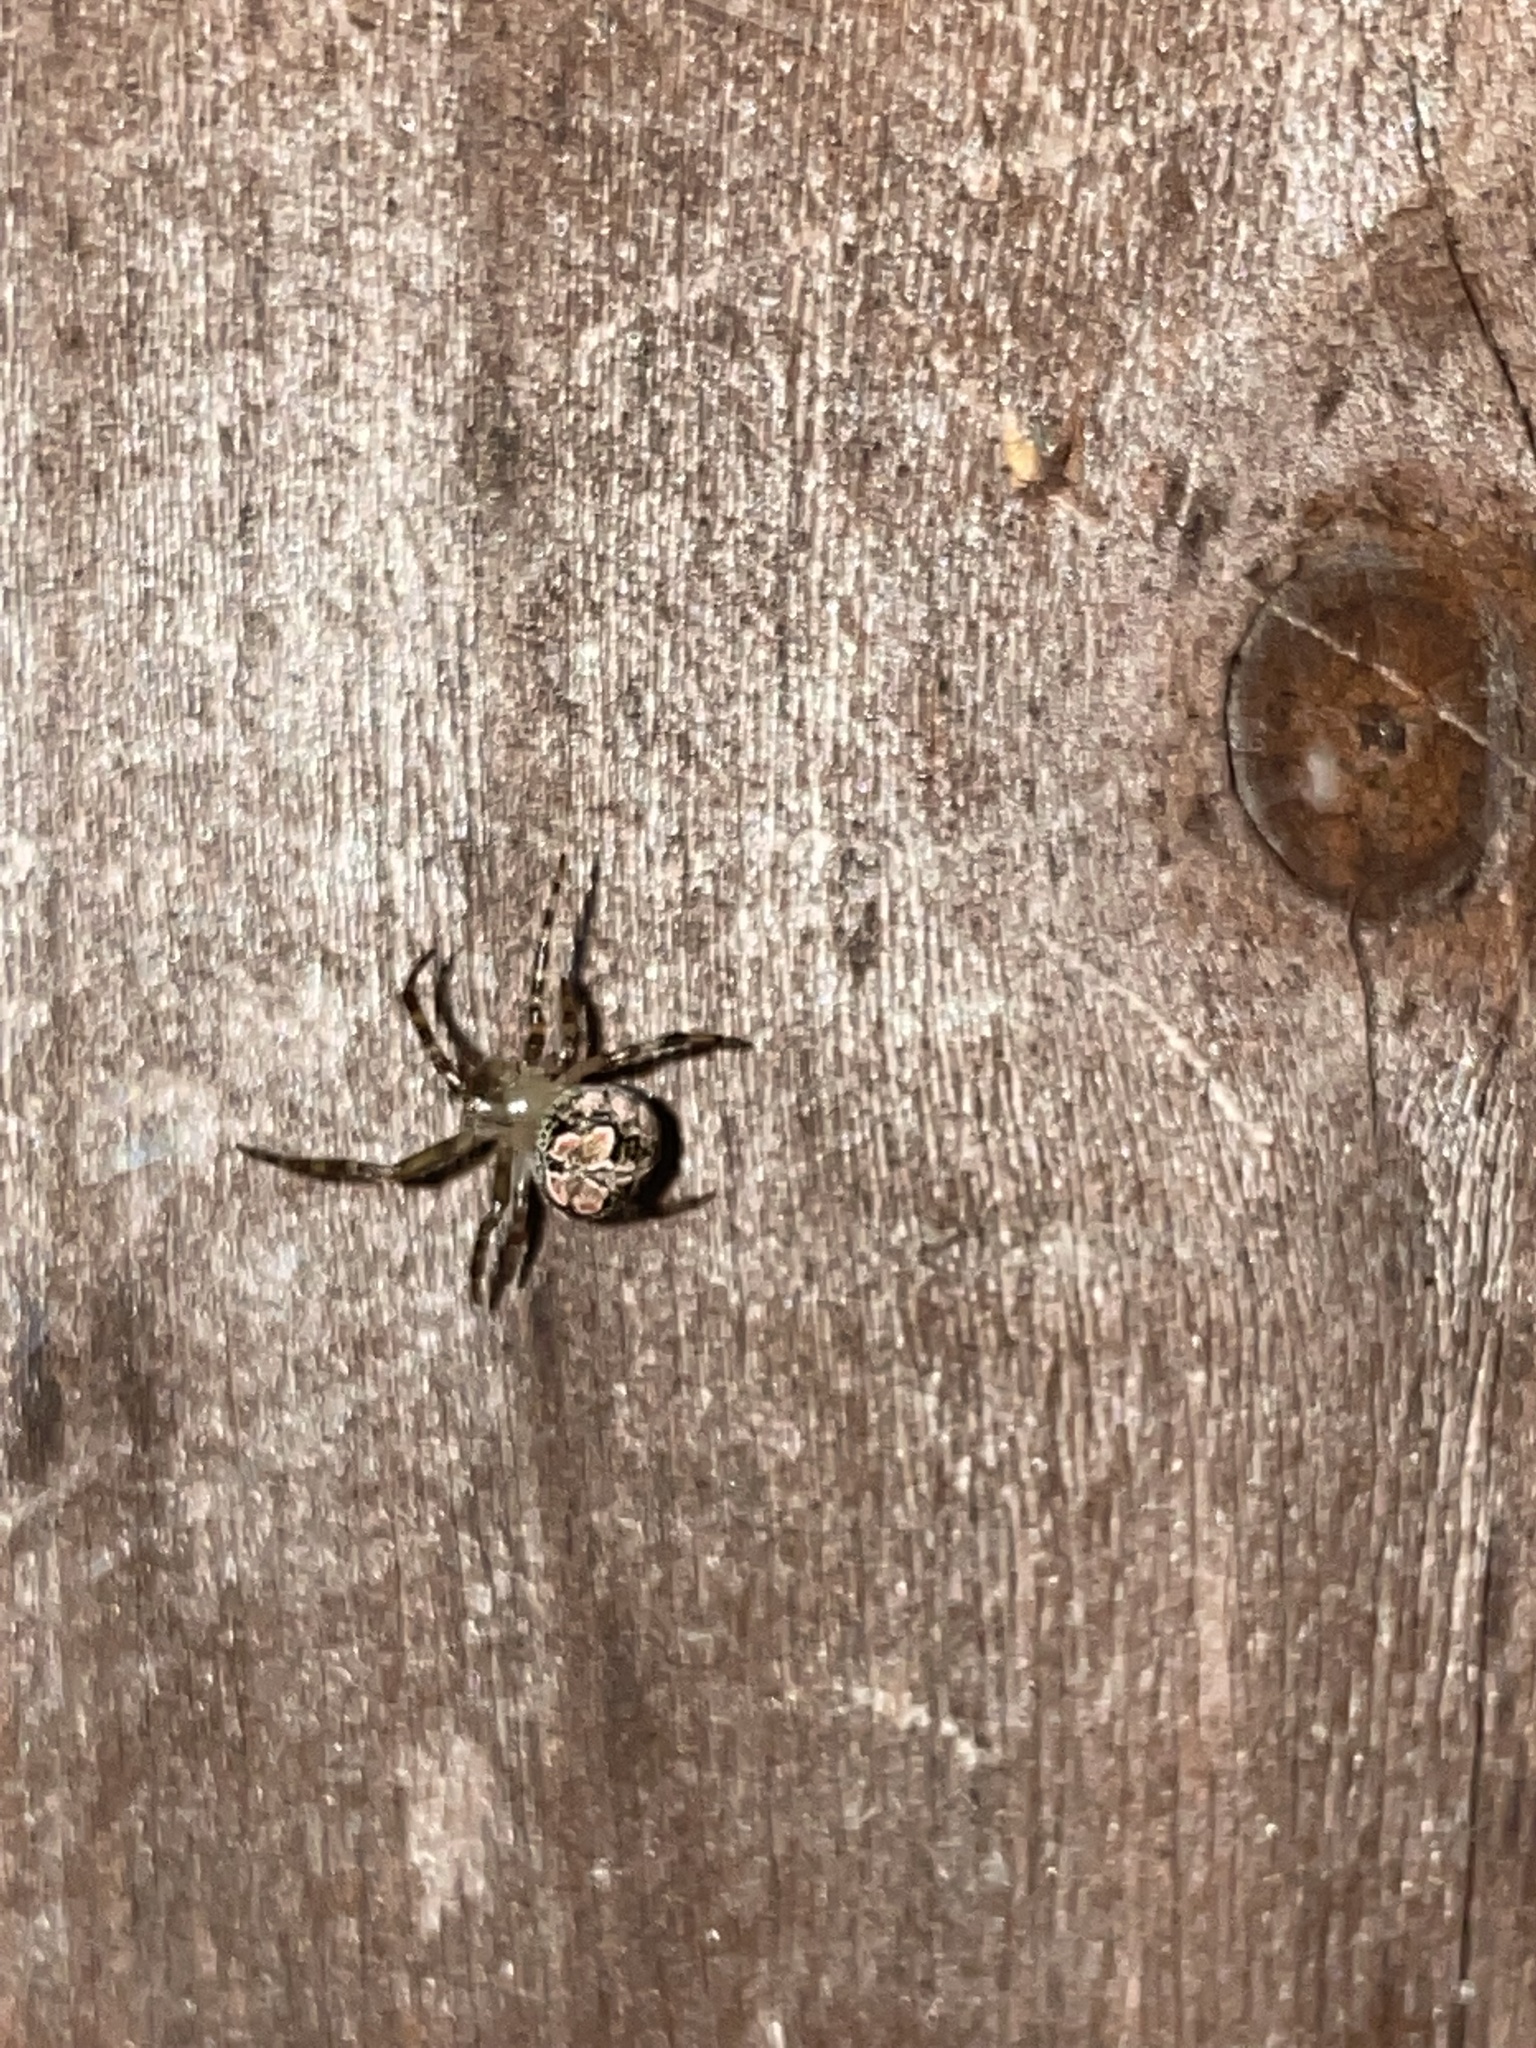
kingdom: Animalia
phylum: Arthropoda
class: Arachnida
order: Araneae
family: Araneidae
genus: Araneus
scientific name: Araneus pegnia
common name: Orb weavers
